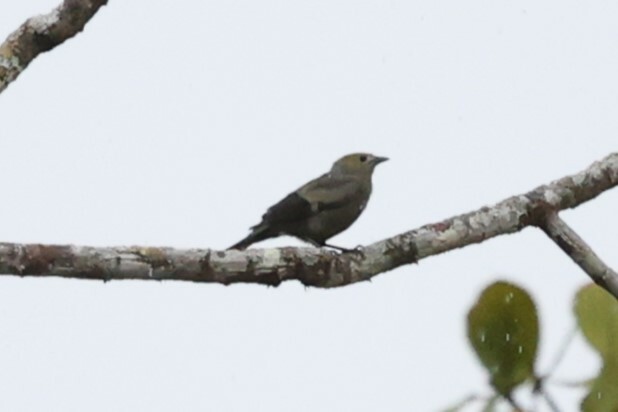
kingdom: Animalia
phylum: Chordata
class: Aves
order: Passeriformes
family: Thraupidae
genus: Thraupis
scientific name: Thraupis palmarum
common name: Palm tanager
